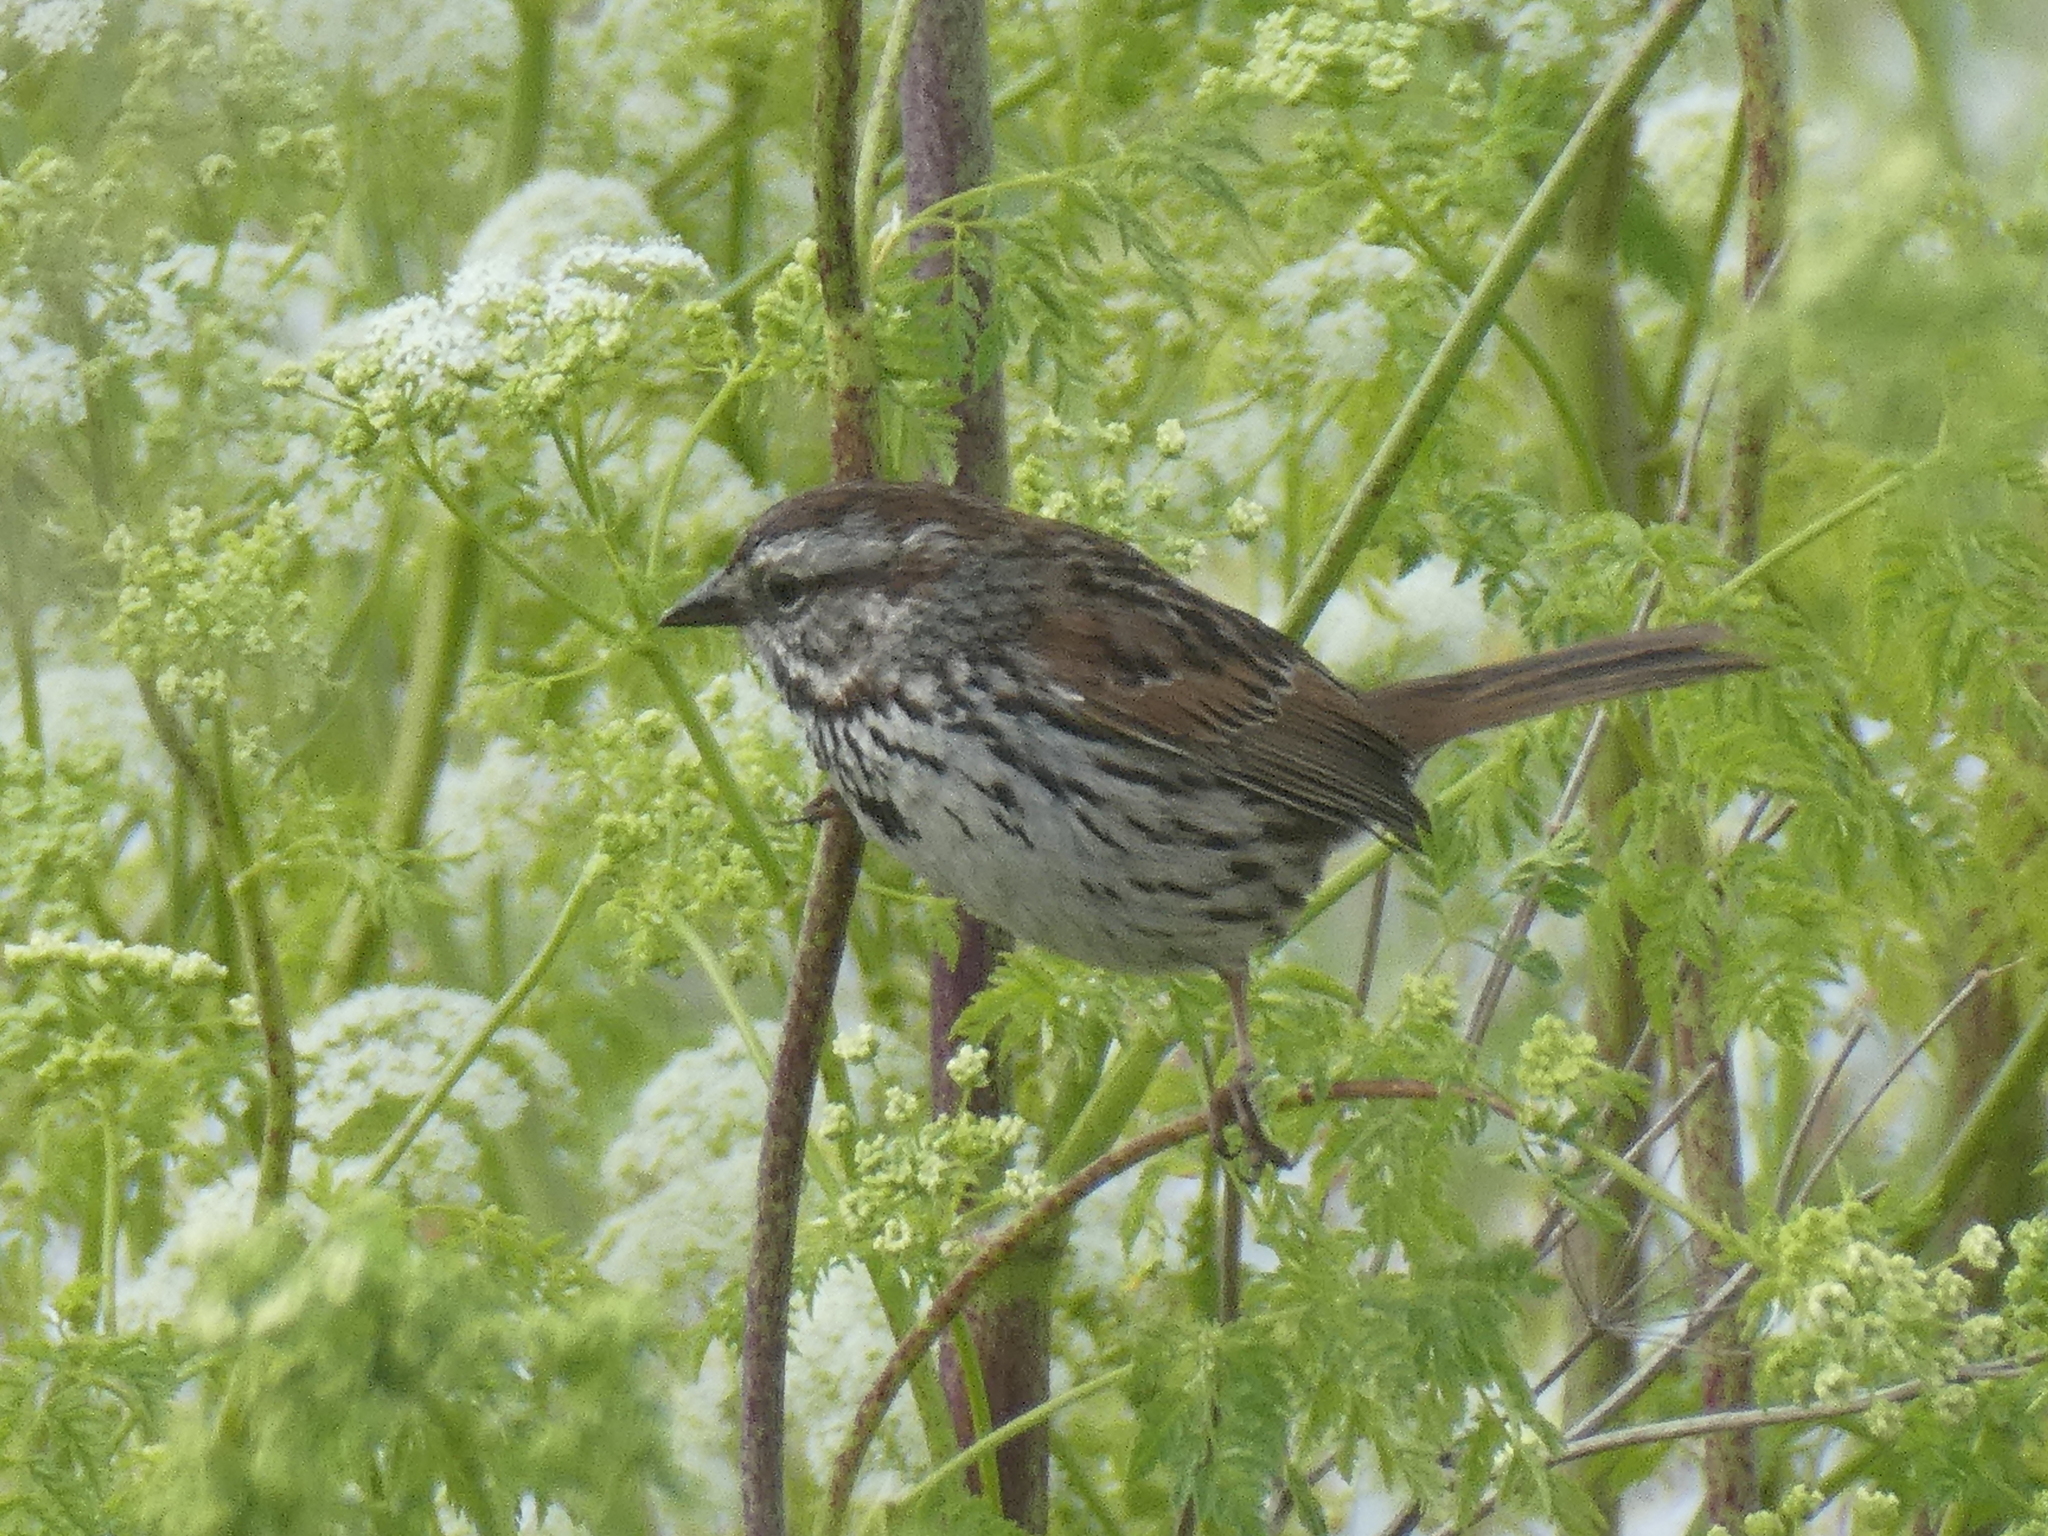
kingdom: Animalia
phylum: Chordata
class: Aves
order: Passeriformes
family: Passerellidae
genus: Melospiza
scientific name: Melospiza melodia
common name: Song sparrow
